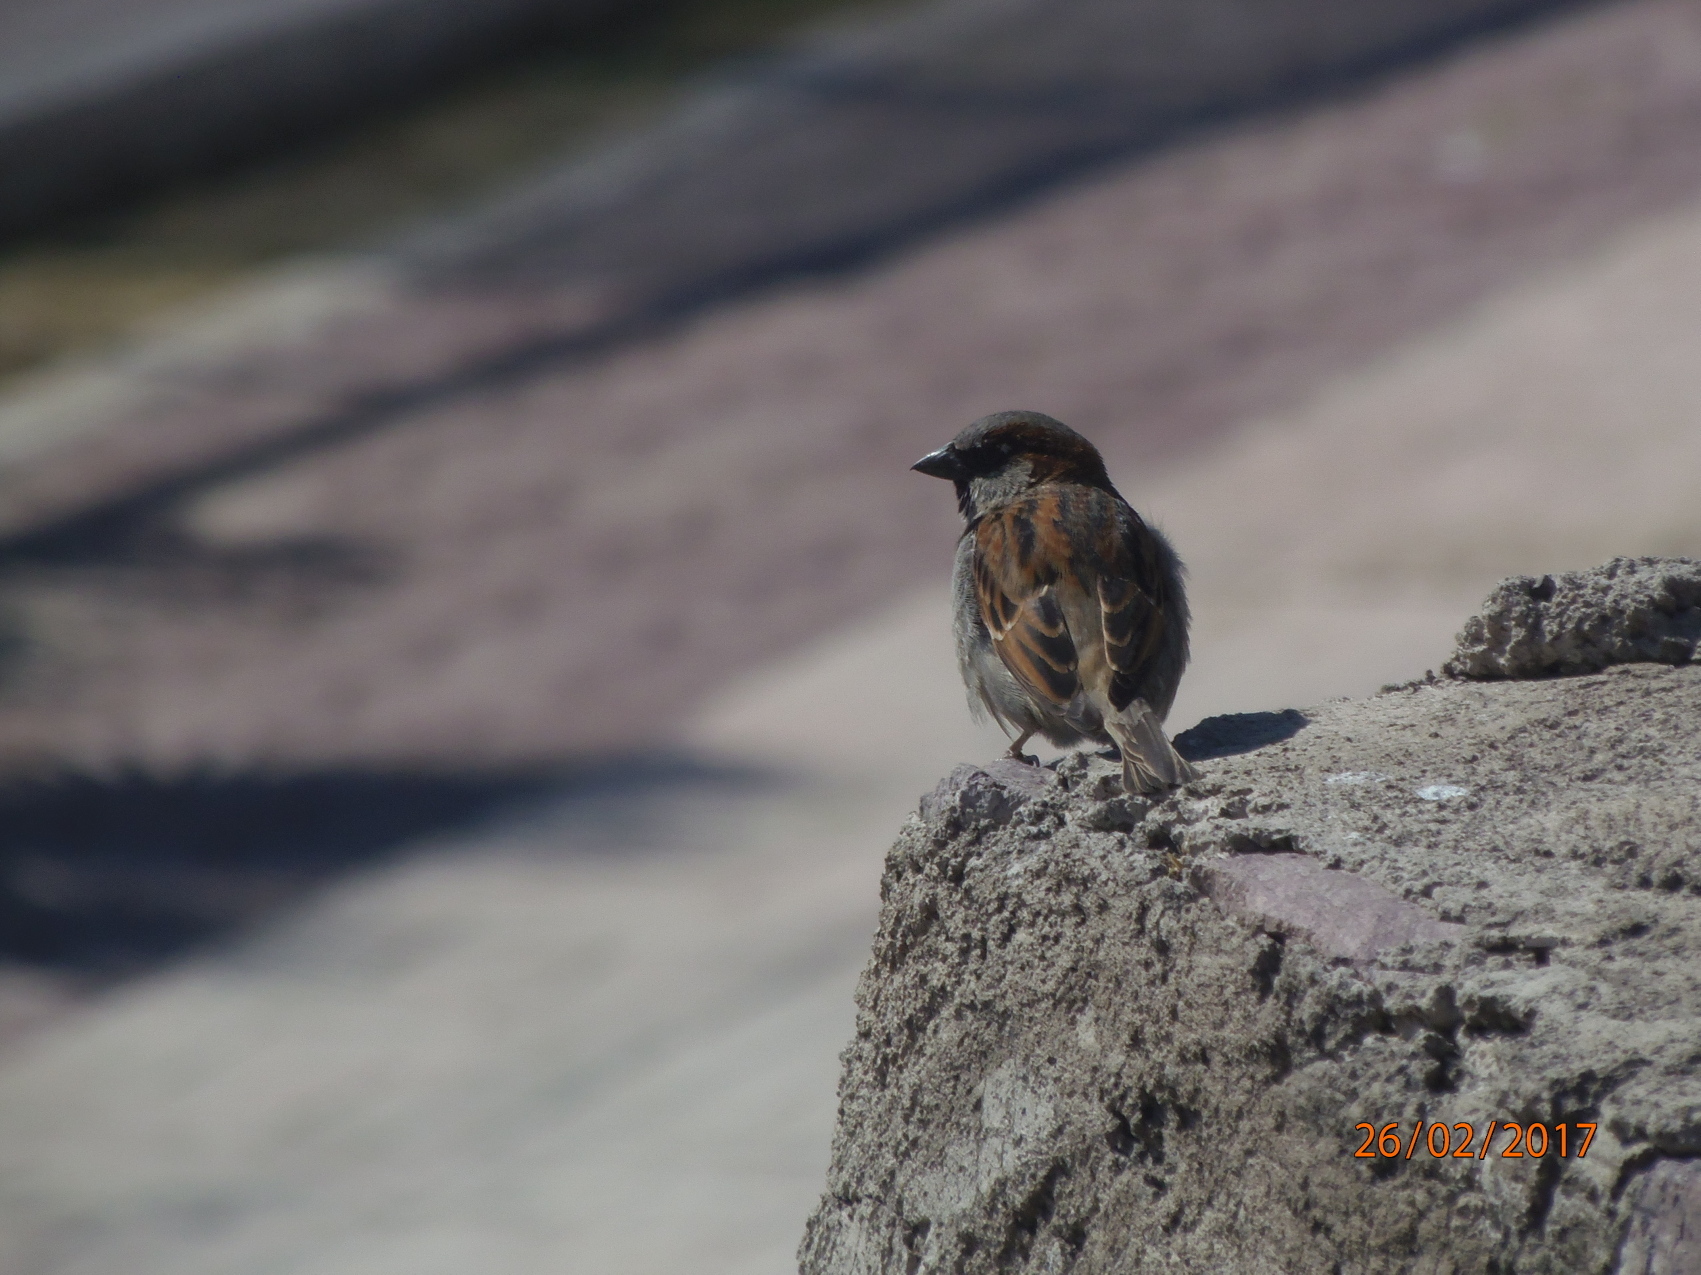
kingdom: Animalia
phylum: Chordata
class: Aves
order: Passeriformes
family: Passeridae
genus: Passer
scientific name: Passer domesticus
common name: House sparrow
